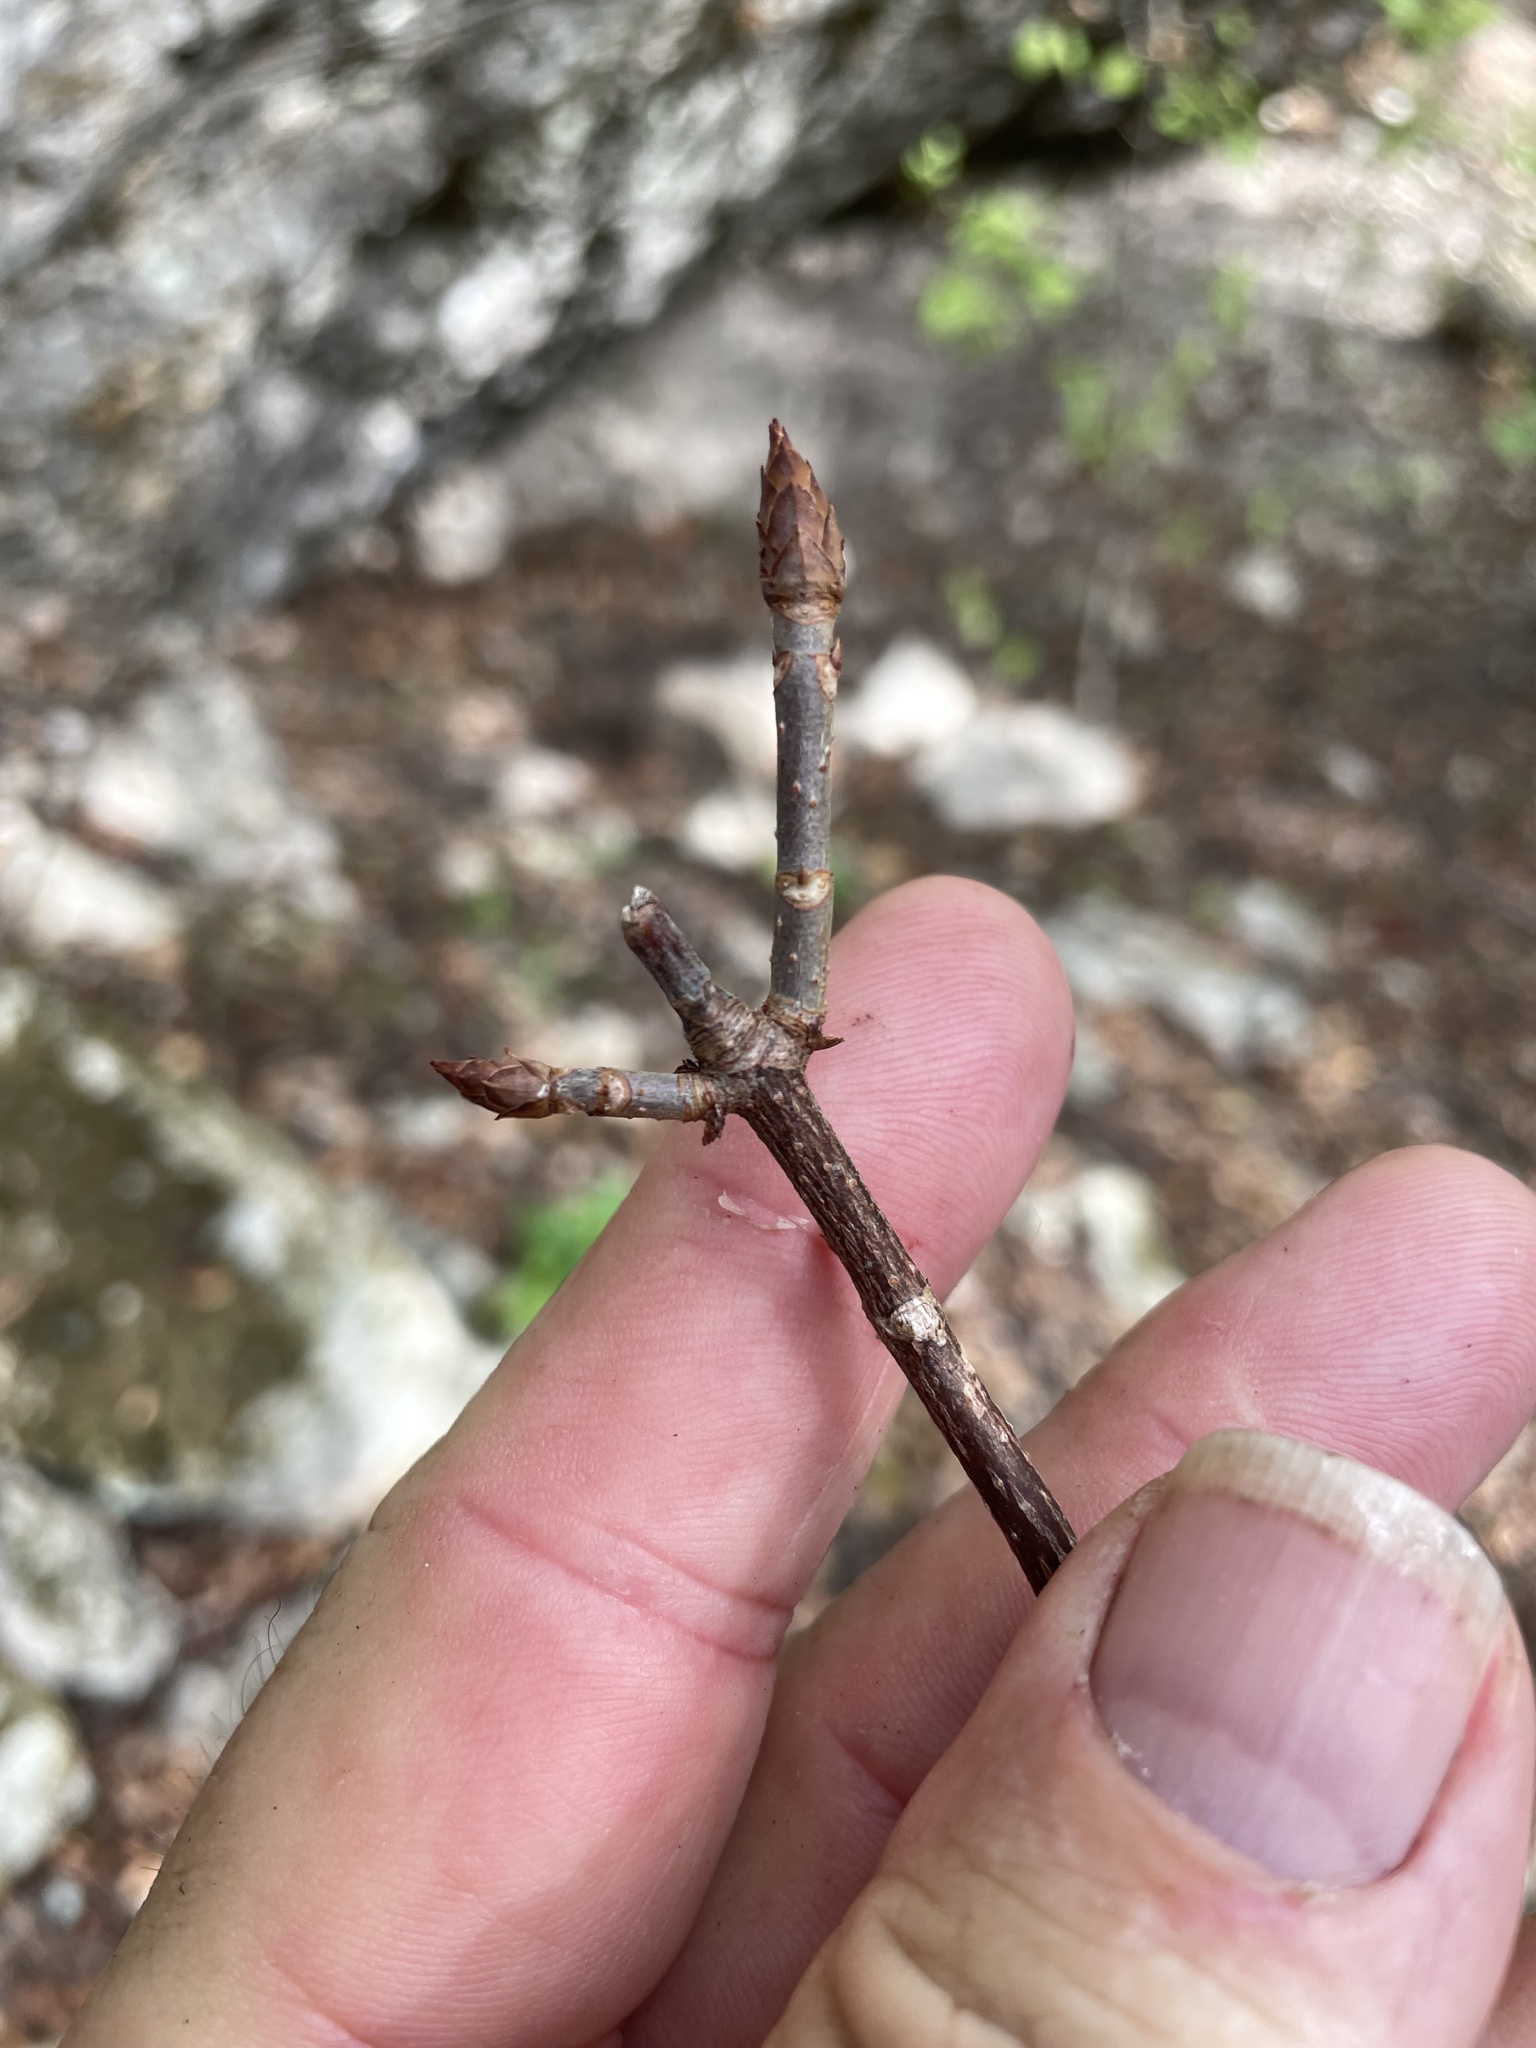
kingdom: Plantae
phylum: Tracheophyta
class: Magnoliopsida
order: Sapindales
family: Sapindaceae
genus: Aesculus
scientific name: Aesculus glabra
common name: Ohio buckeye
